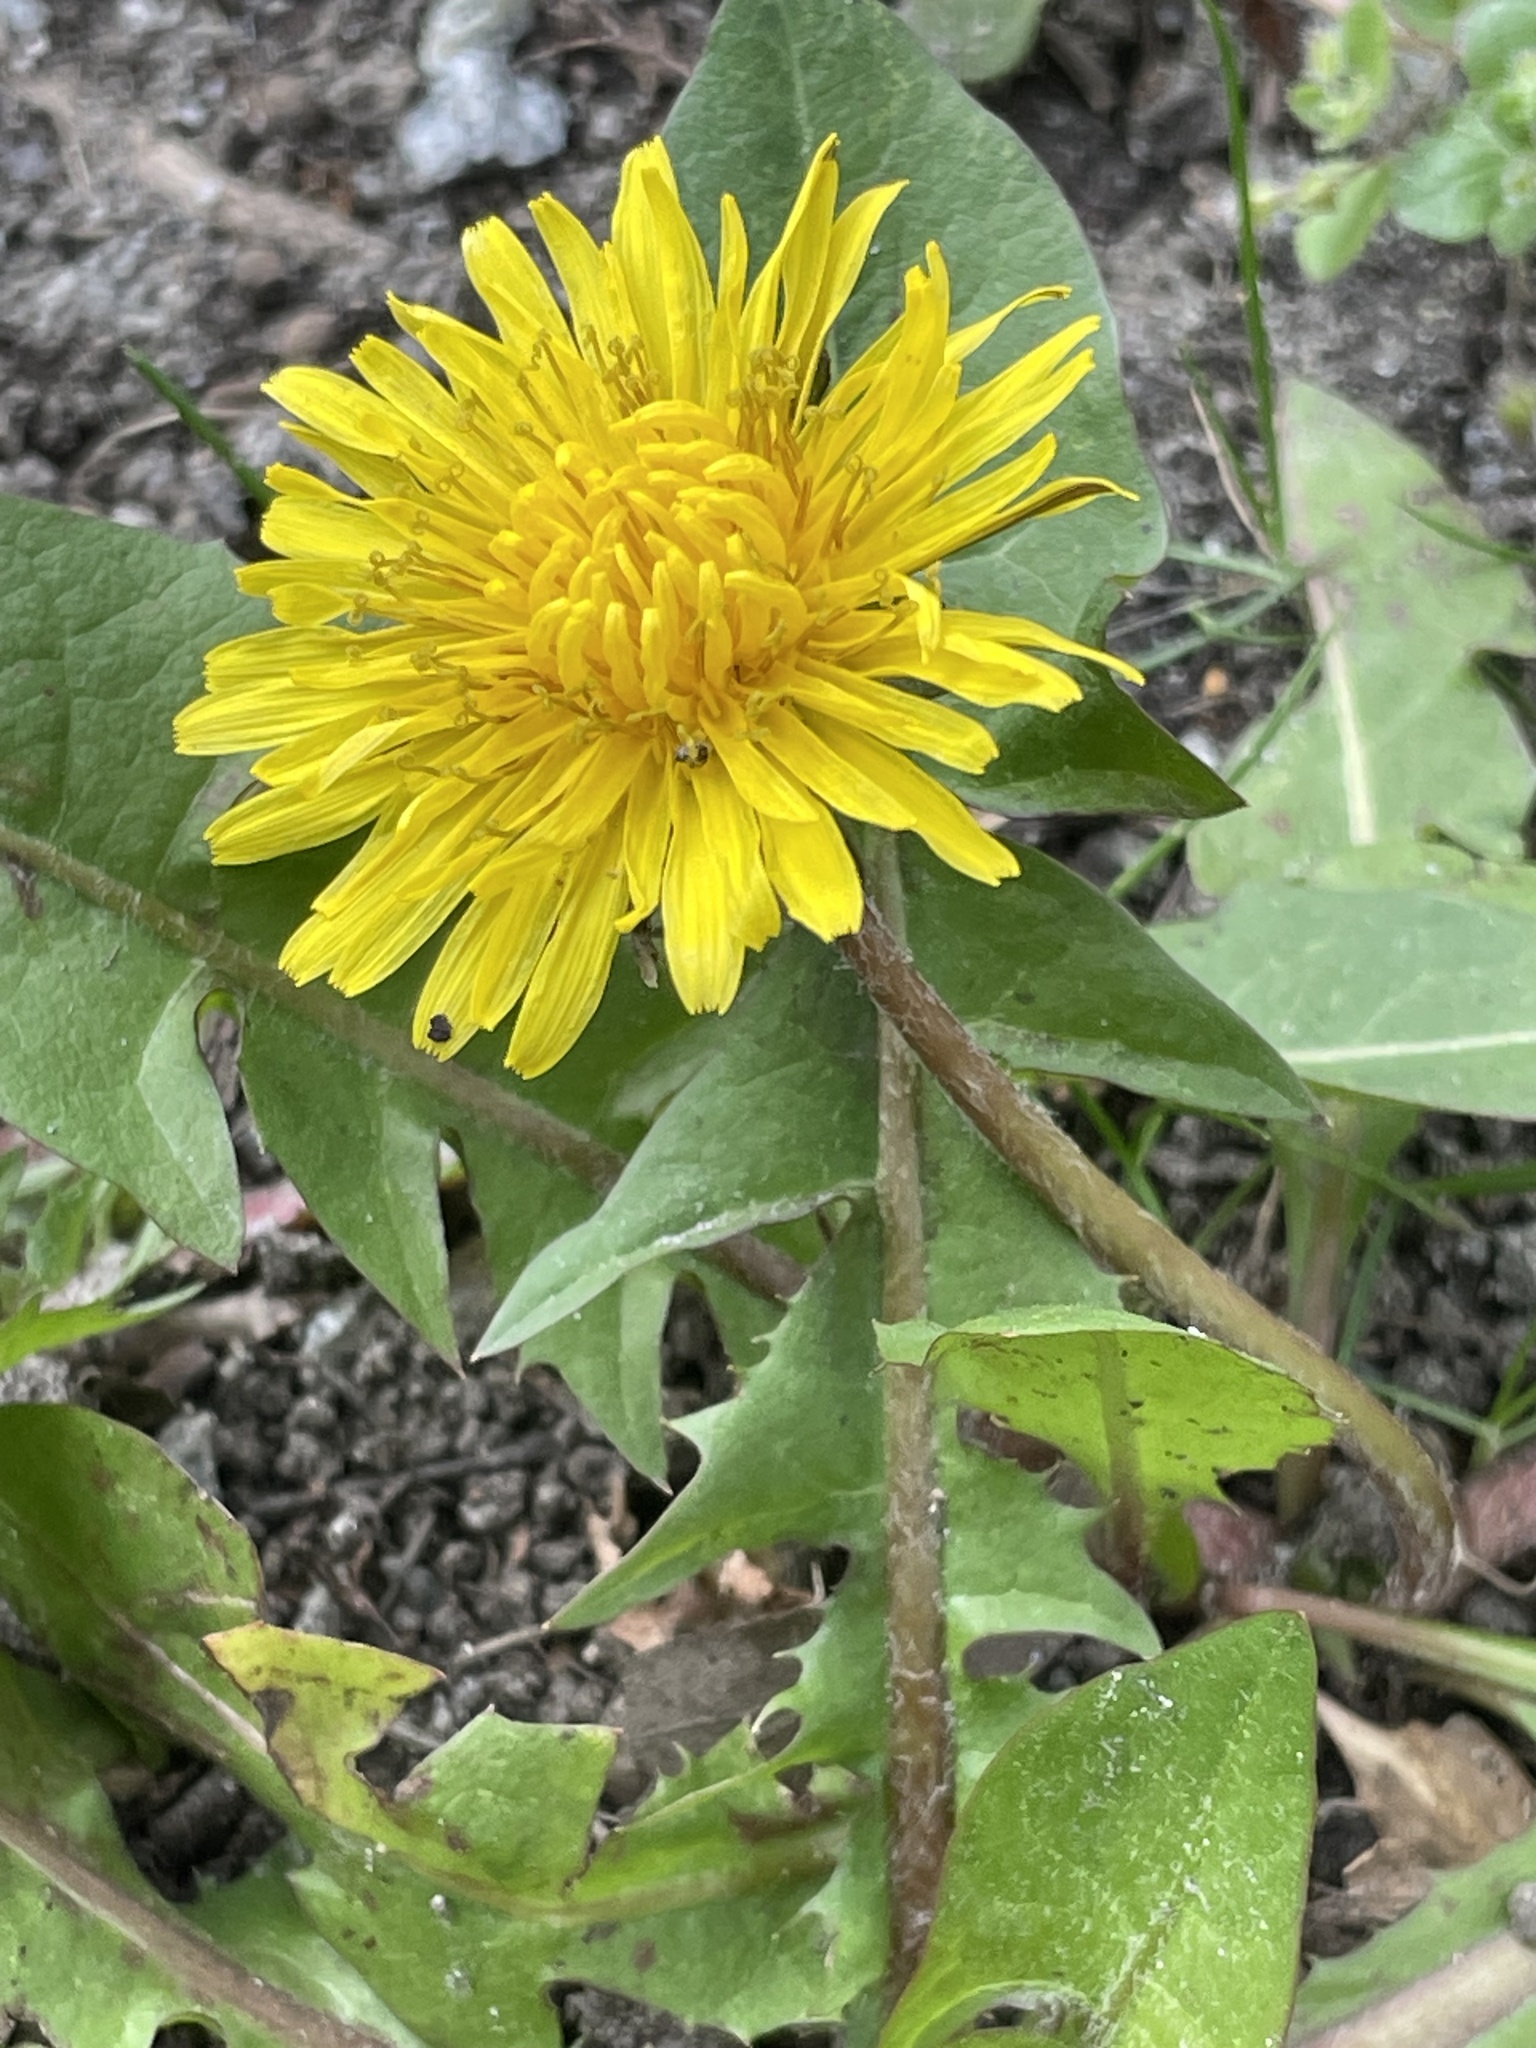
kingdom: Plantae
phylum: Tracheophyta
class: Magnoliopsida
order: Asterales
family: Asteraceae
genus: Taraxacum
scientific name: Taraxacum officinale
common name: Common dandelion
